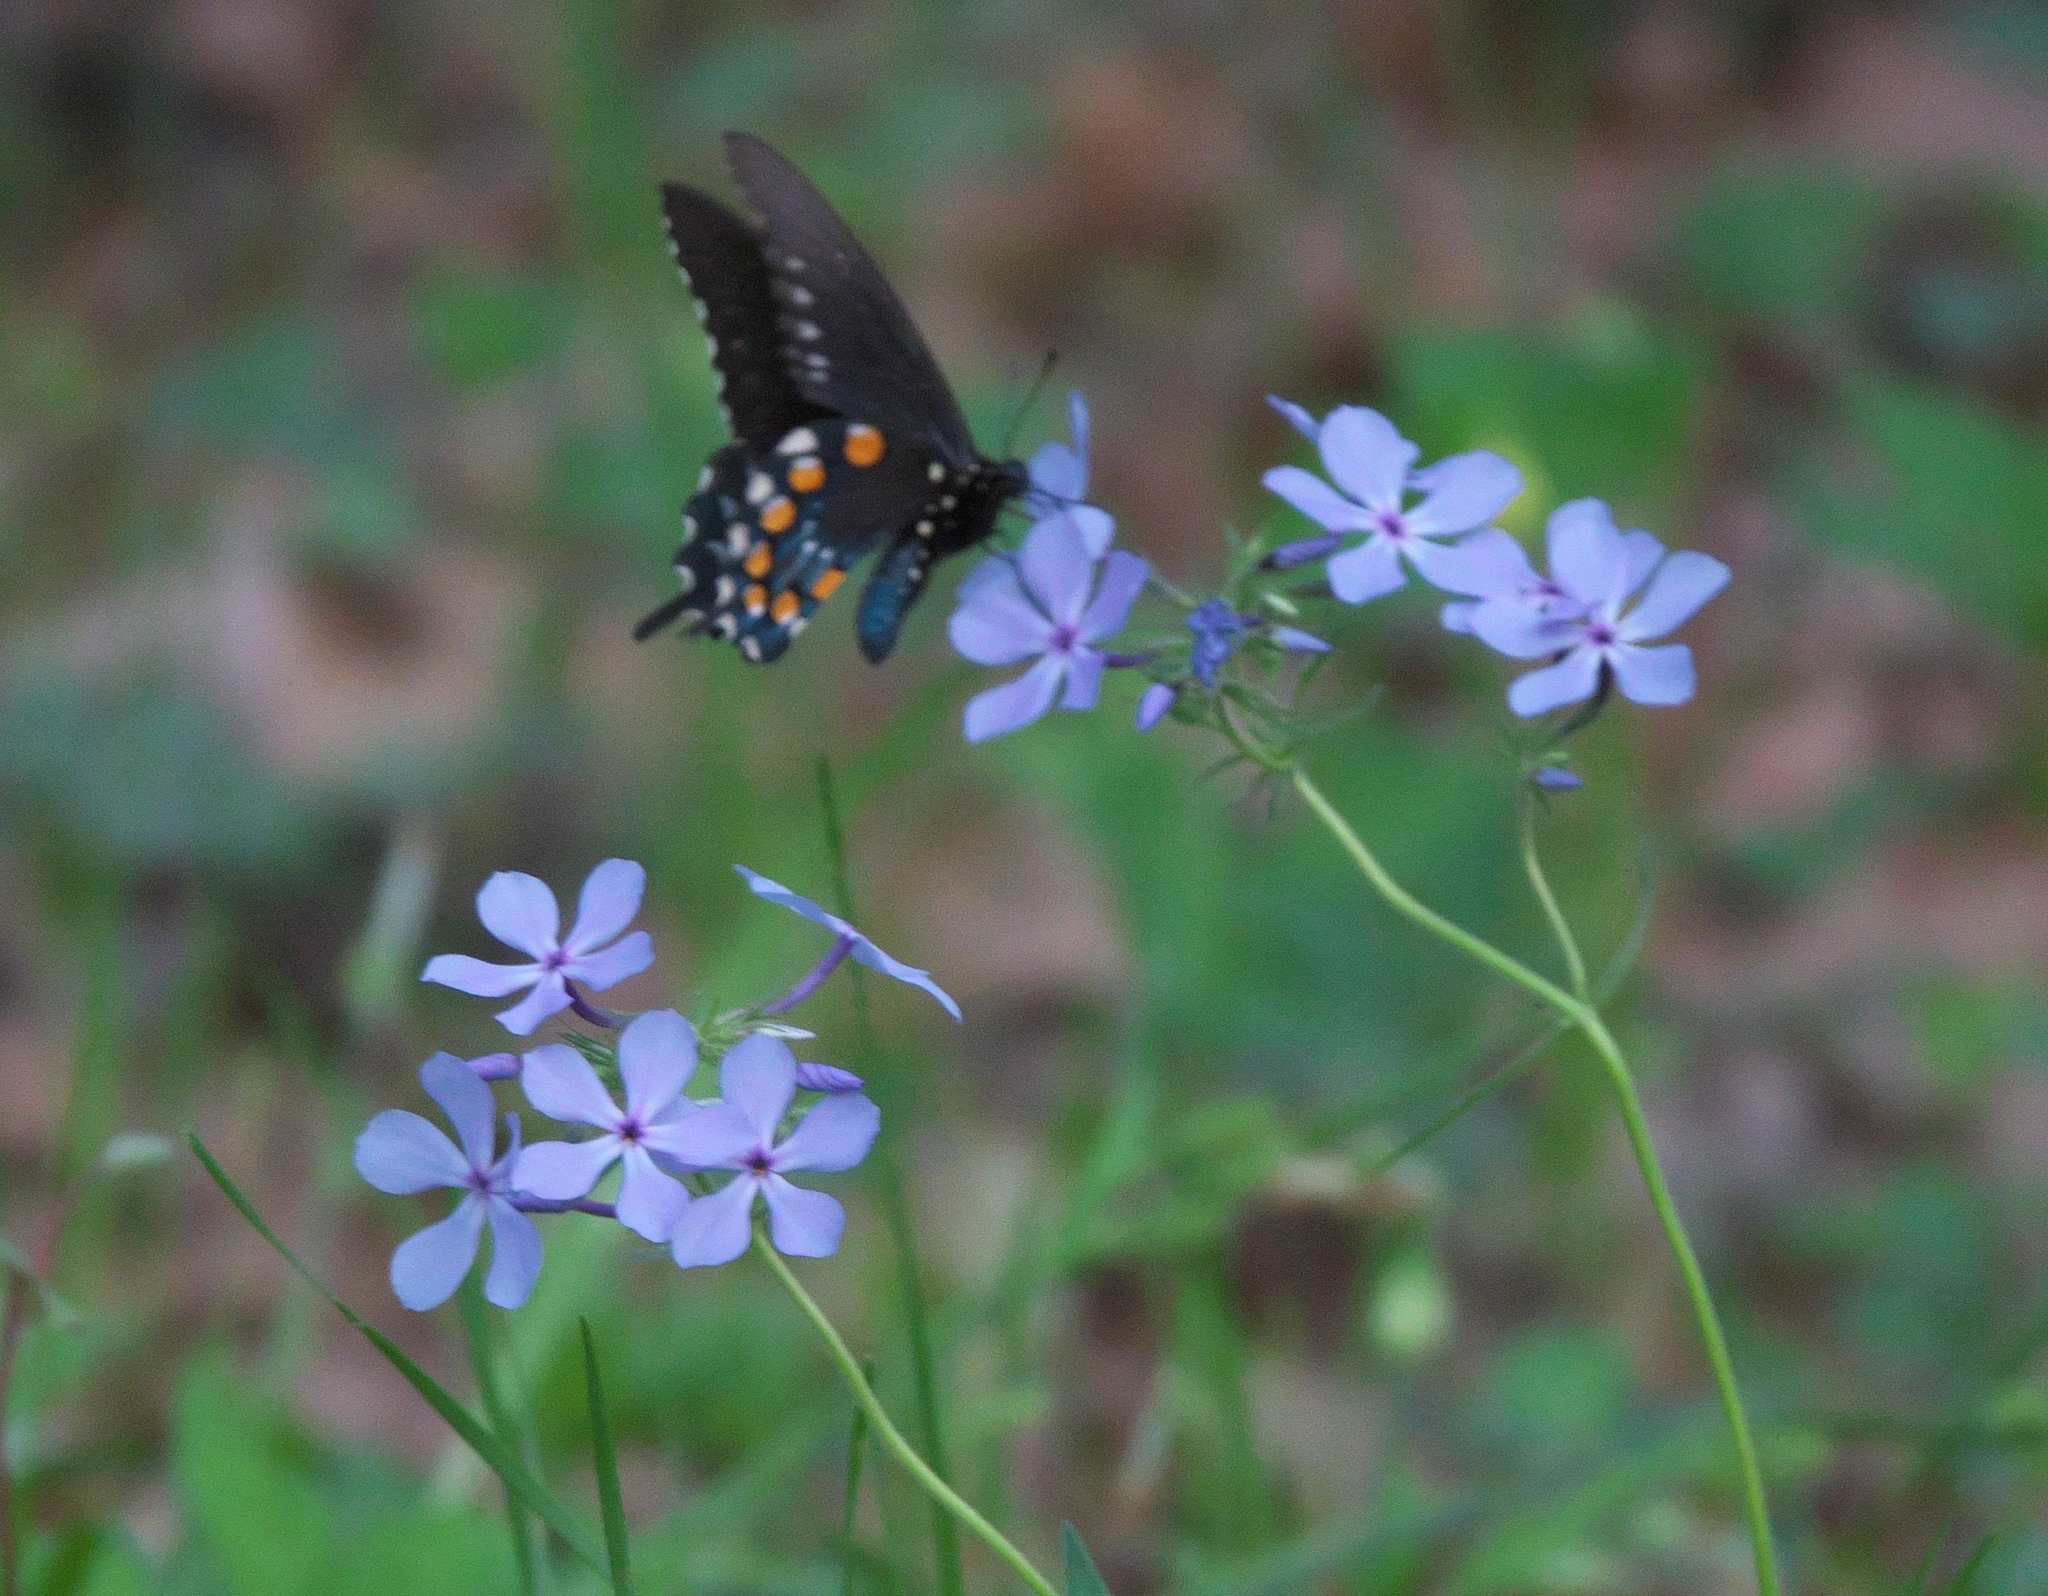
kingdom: Animalia
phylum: Arthropoda
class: Insecta
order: Lepidoptera
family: Papilionidae
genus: Battus
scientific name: Battus philenor
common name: Pipevine swallowtail
